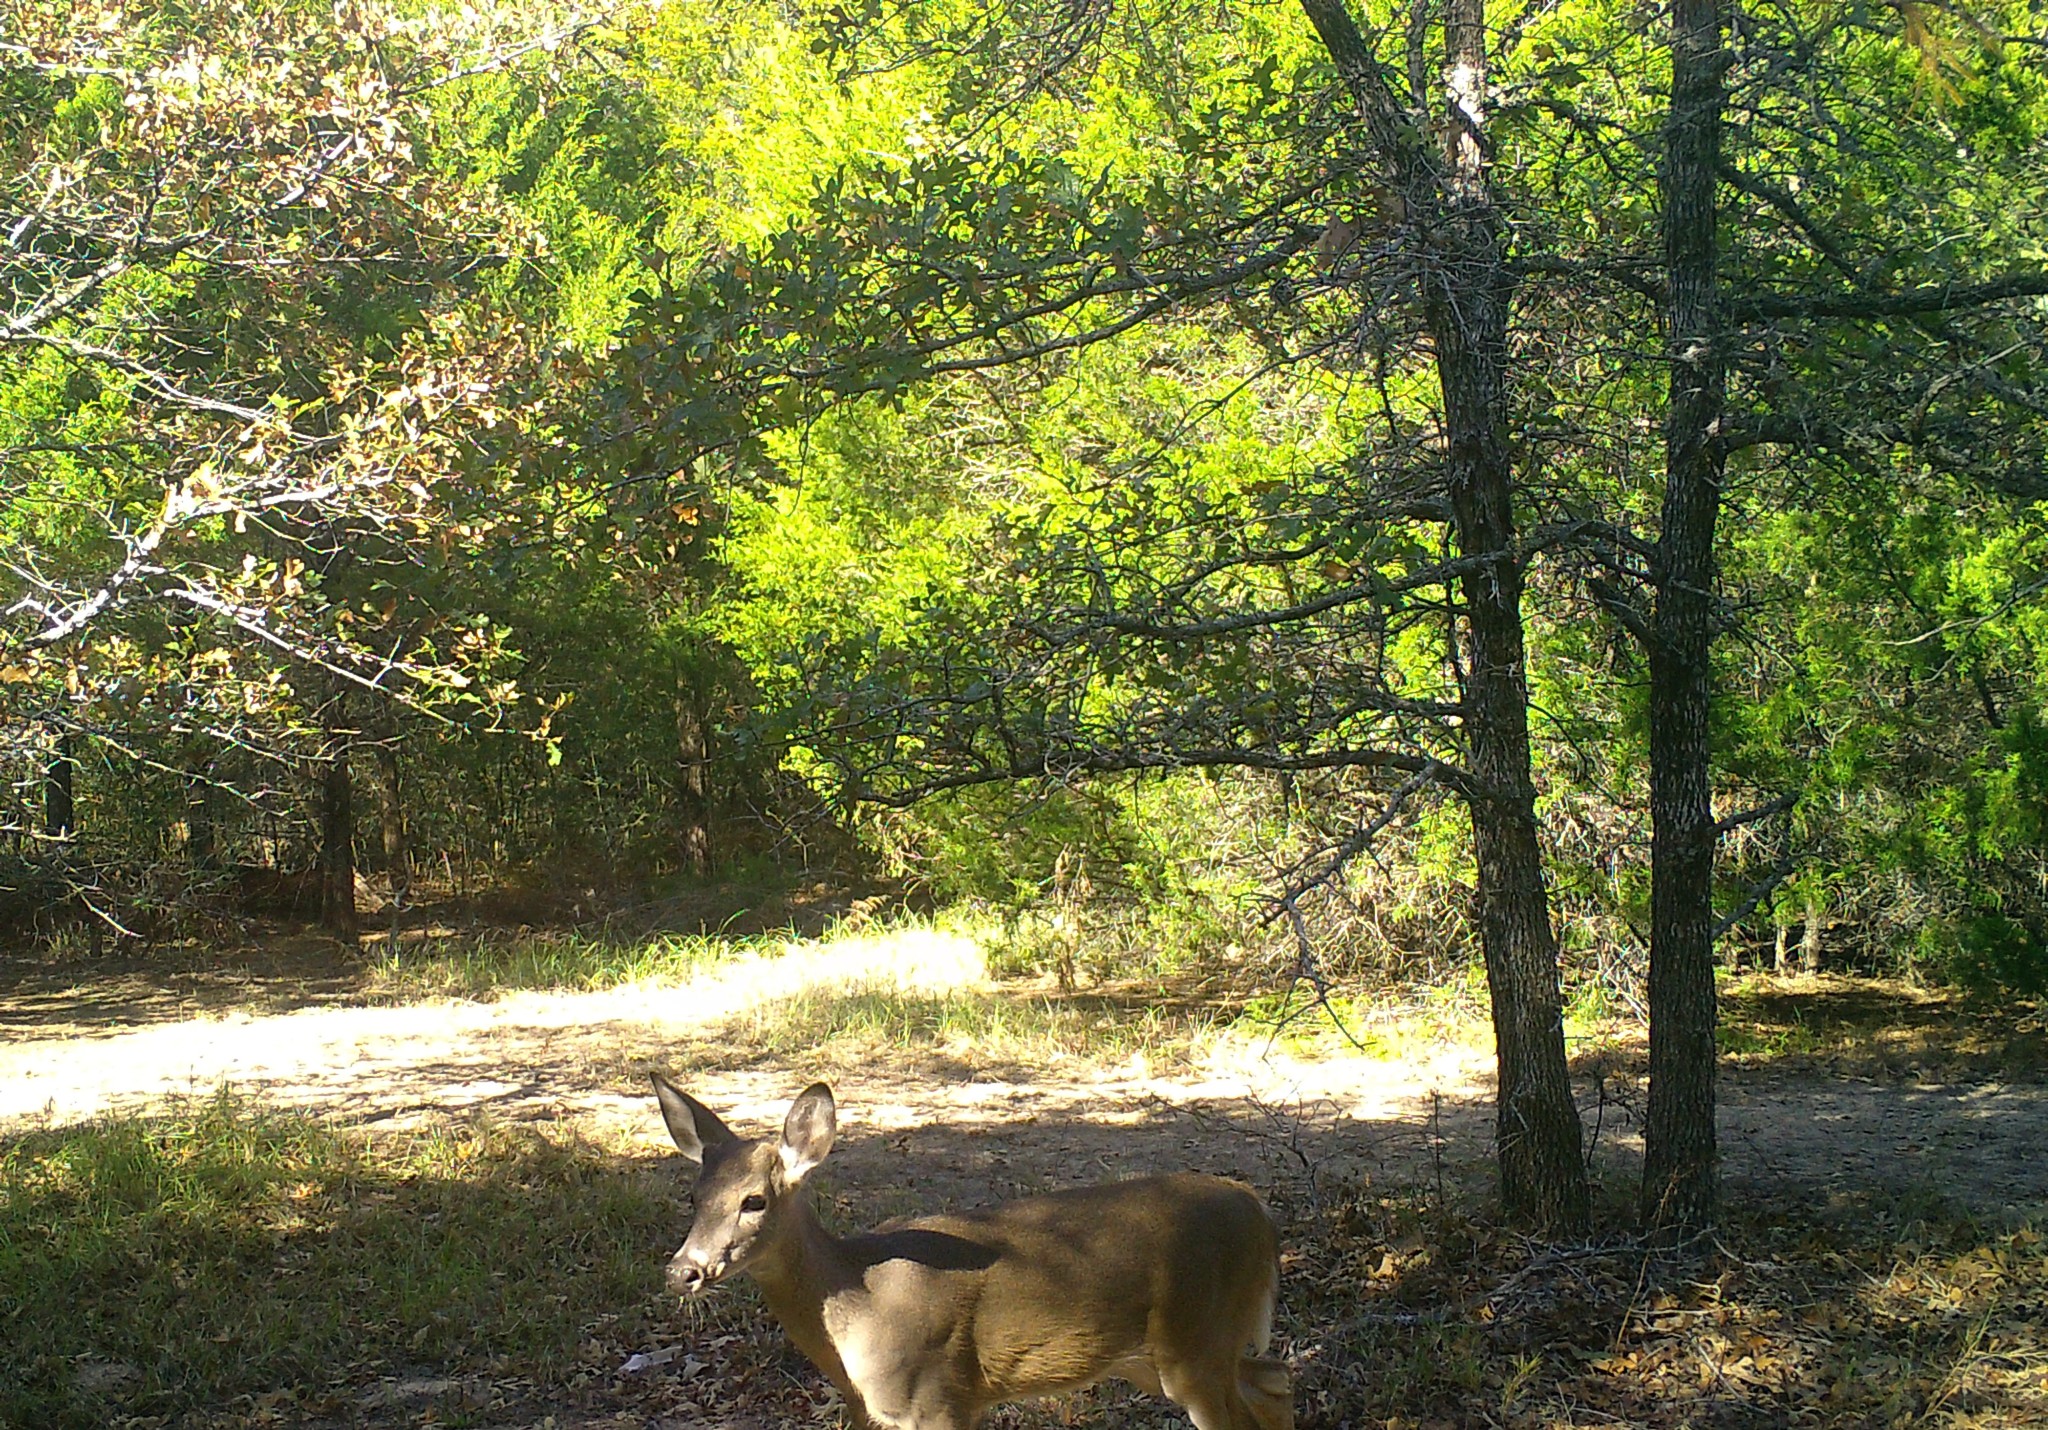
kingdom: Animalia
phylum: Chordata
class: Mammalia
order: Artiodactyla
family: Cervidae
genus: Odocoileus
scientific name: Odocoileus virginianus
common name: White-tailed deer
